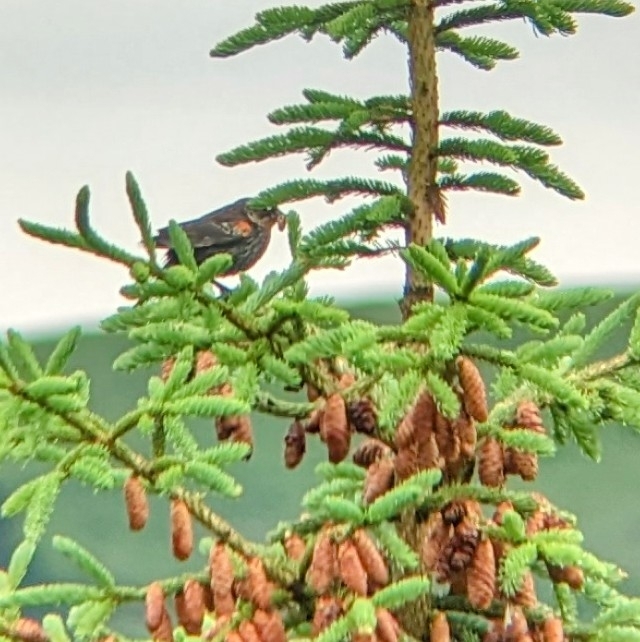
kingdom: Animalia
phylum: Chordata
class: Aves
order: Passeriformes
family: Icteridae
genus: Agelaius
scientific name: Agelaius phoeniceus
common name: Red-winged blackbird
